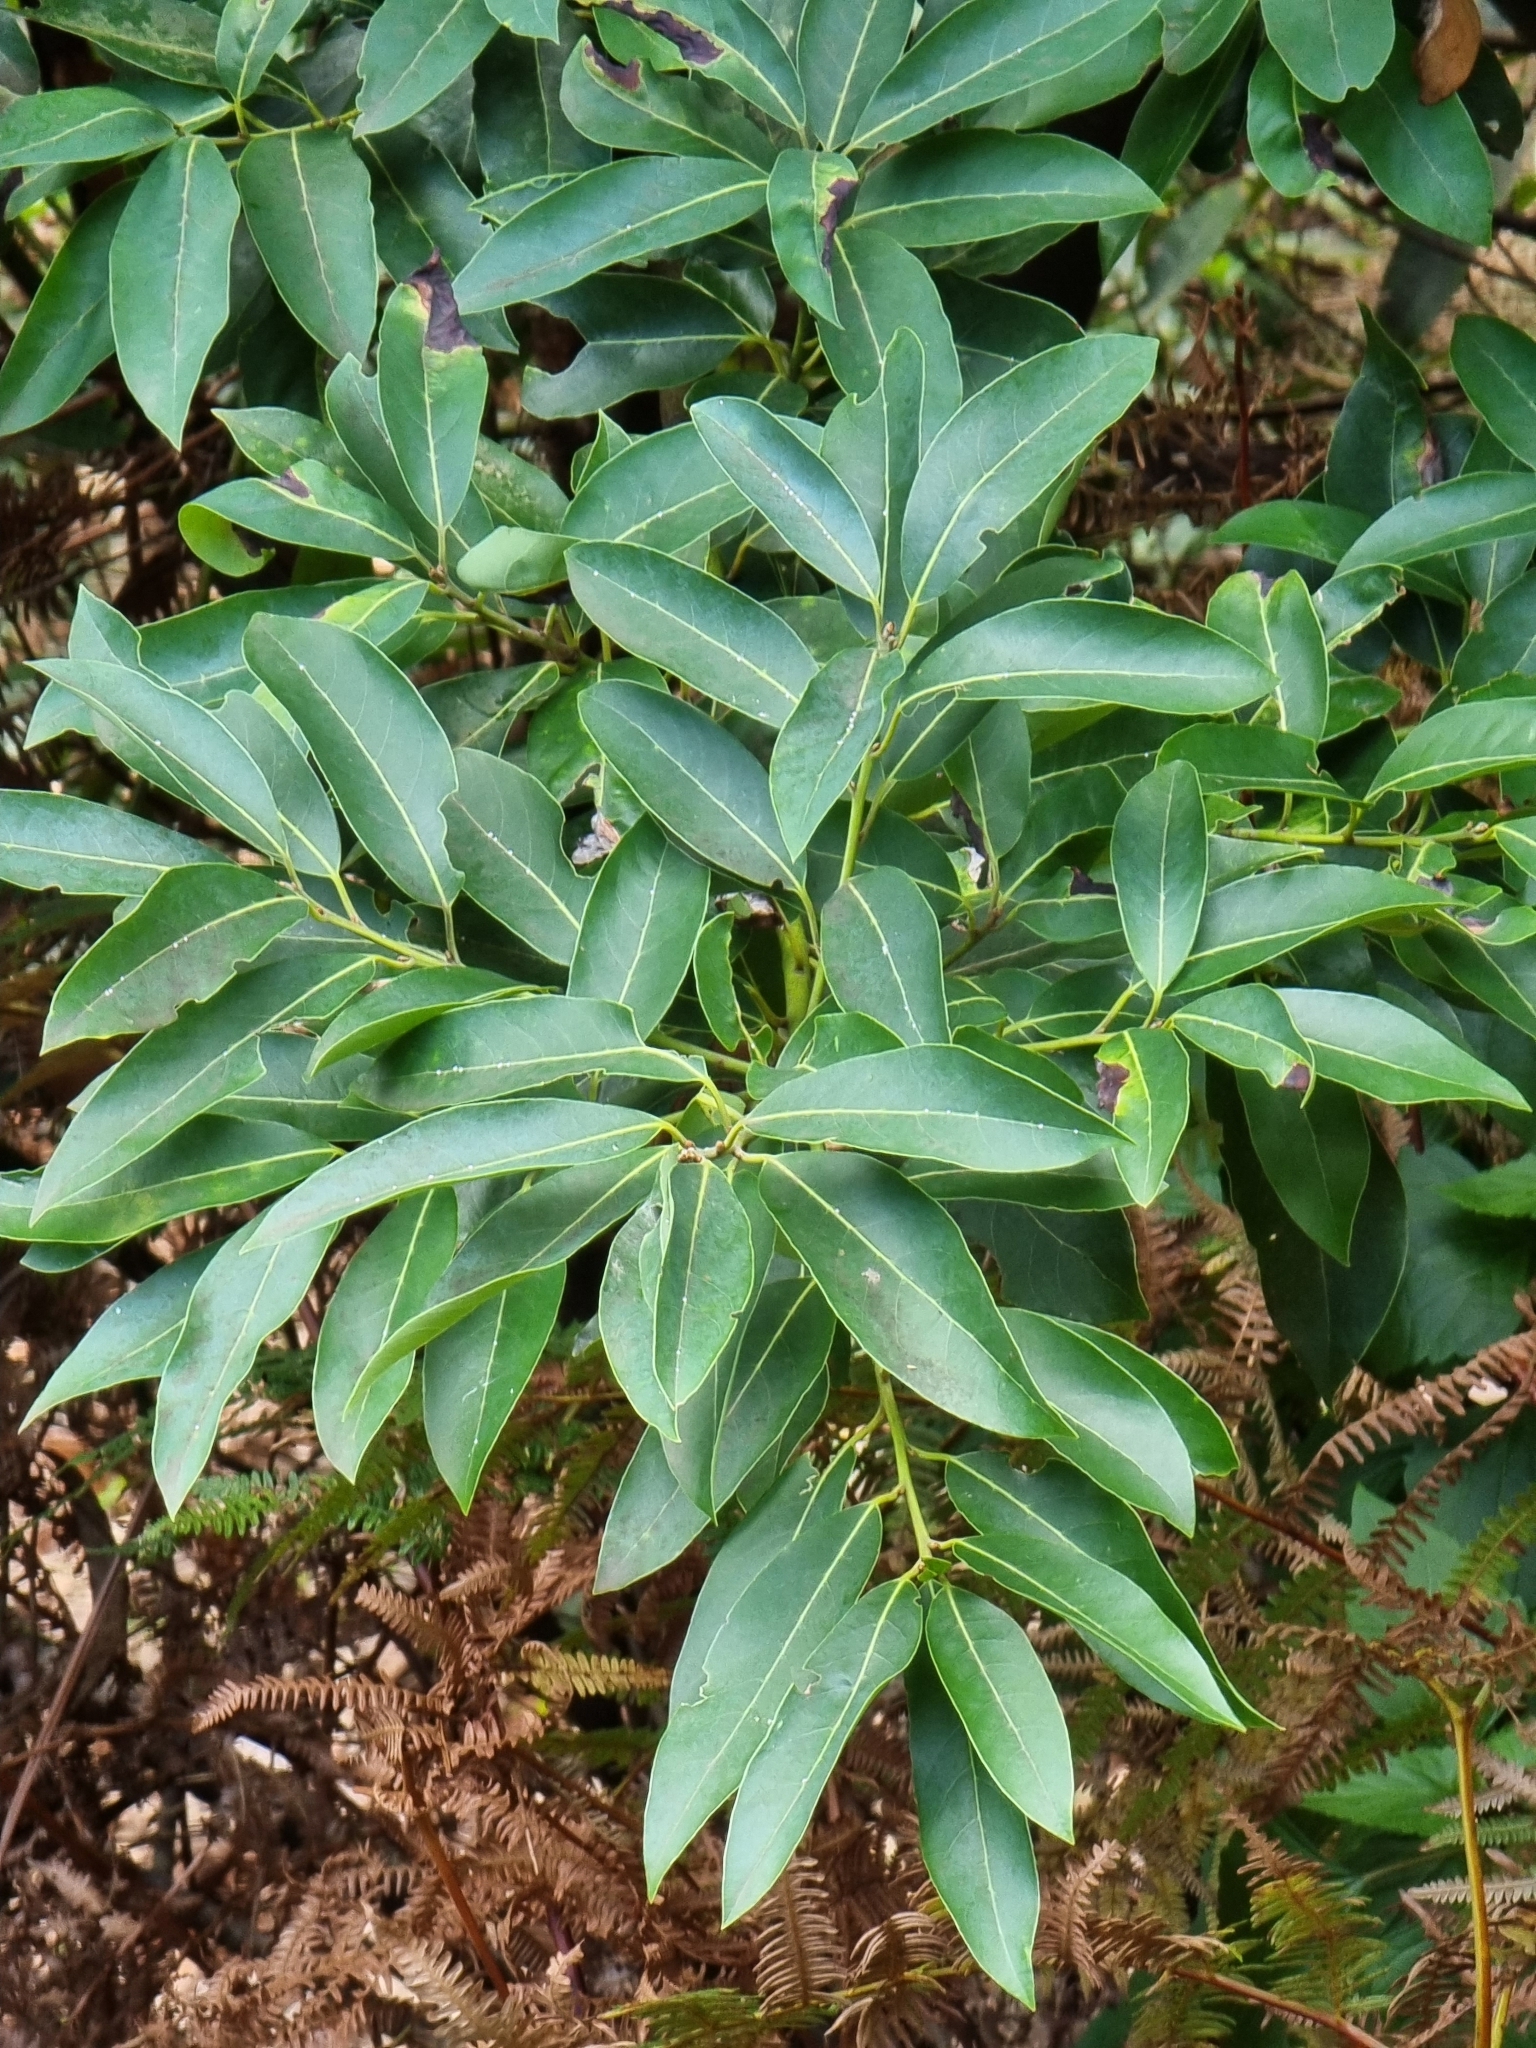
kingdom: Plantae
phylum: Tracheophyta
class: Magnoliopsida
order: Laurales
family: Lauraceae
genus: Persea
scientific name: Persea indica
